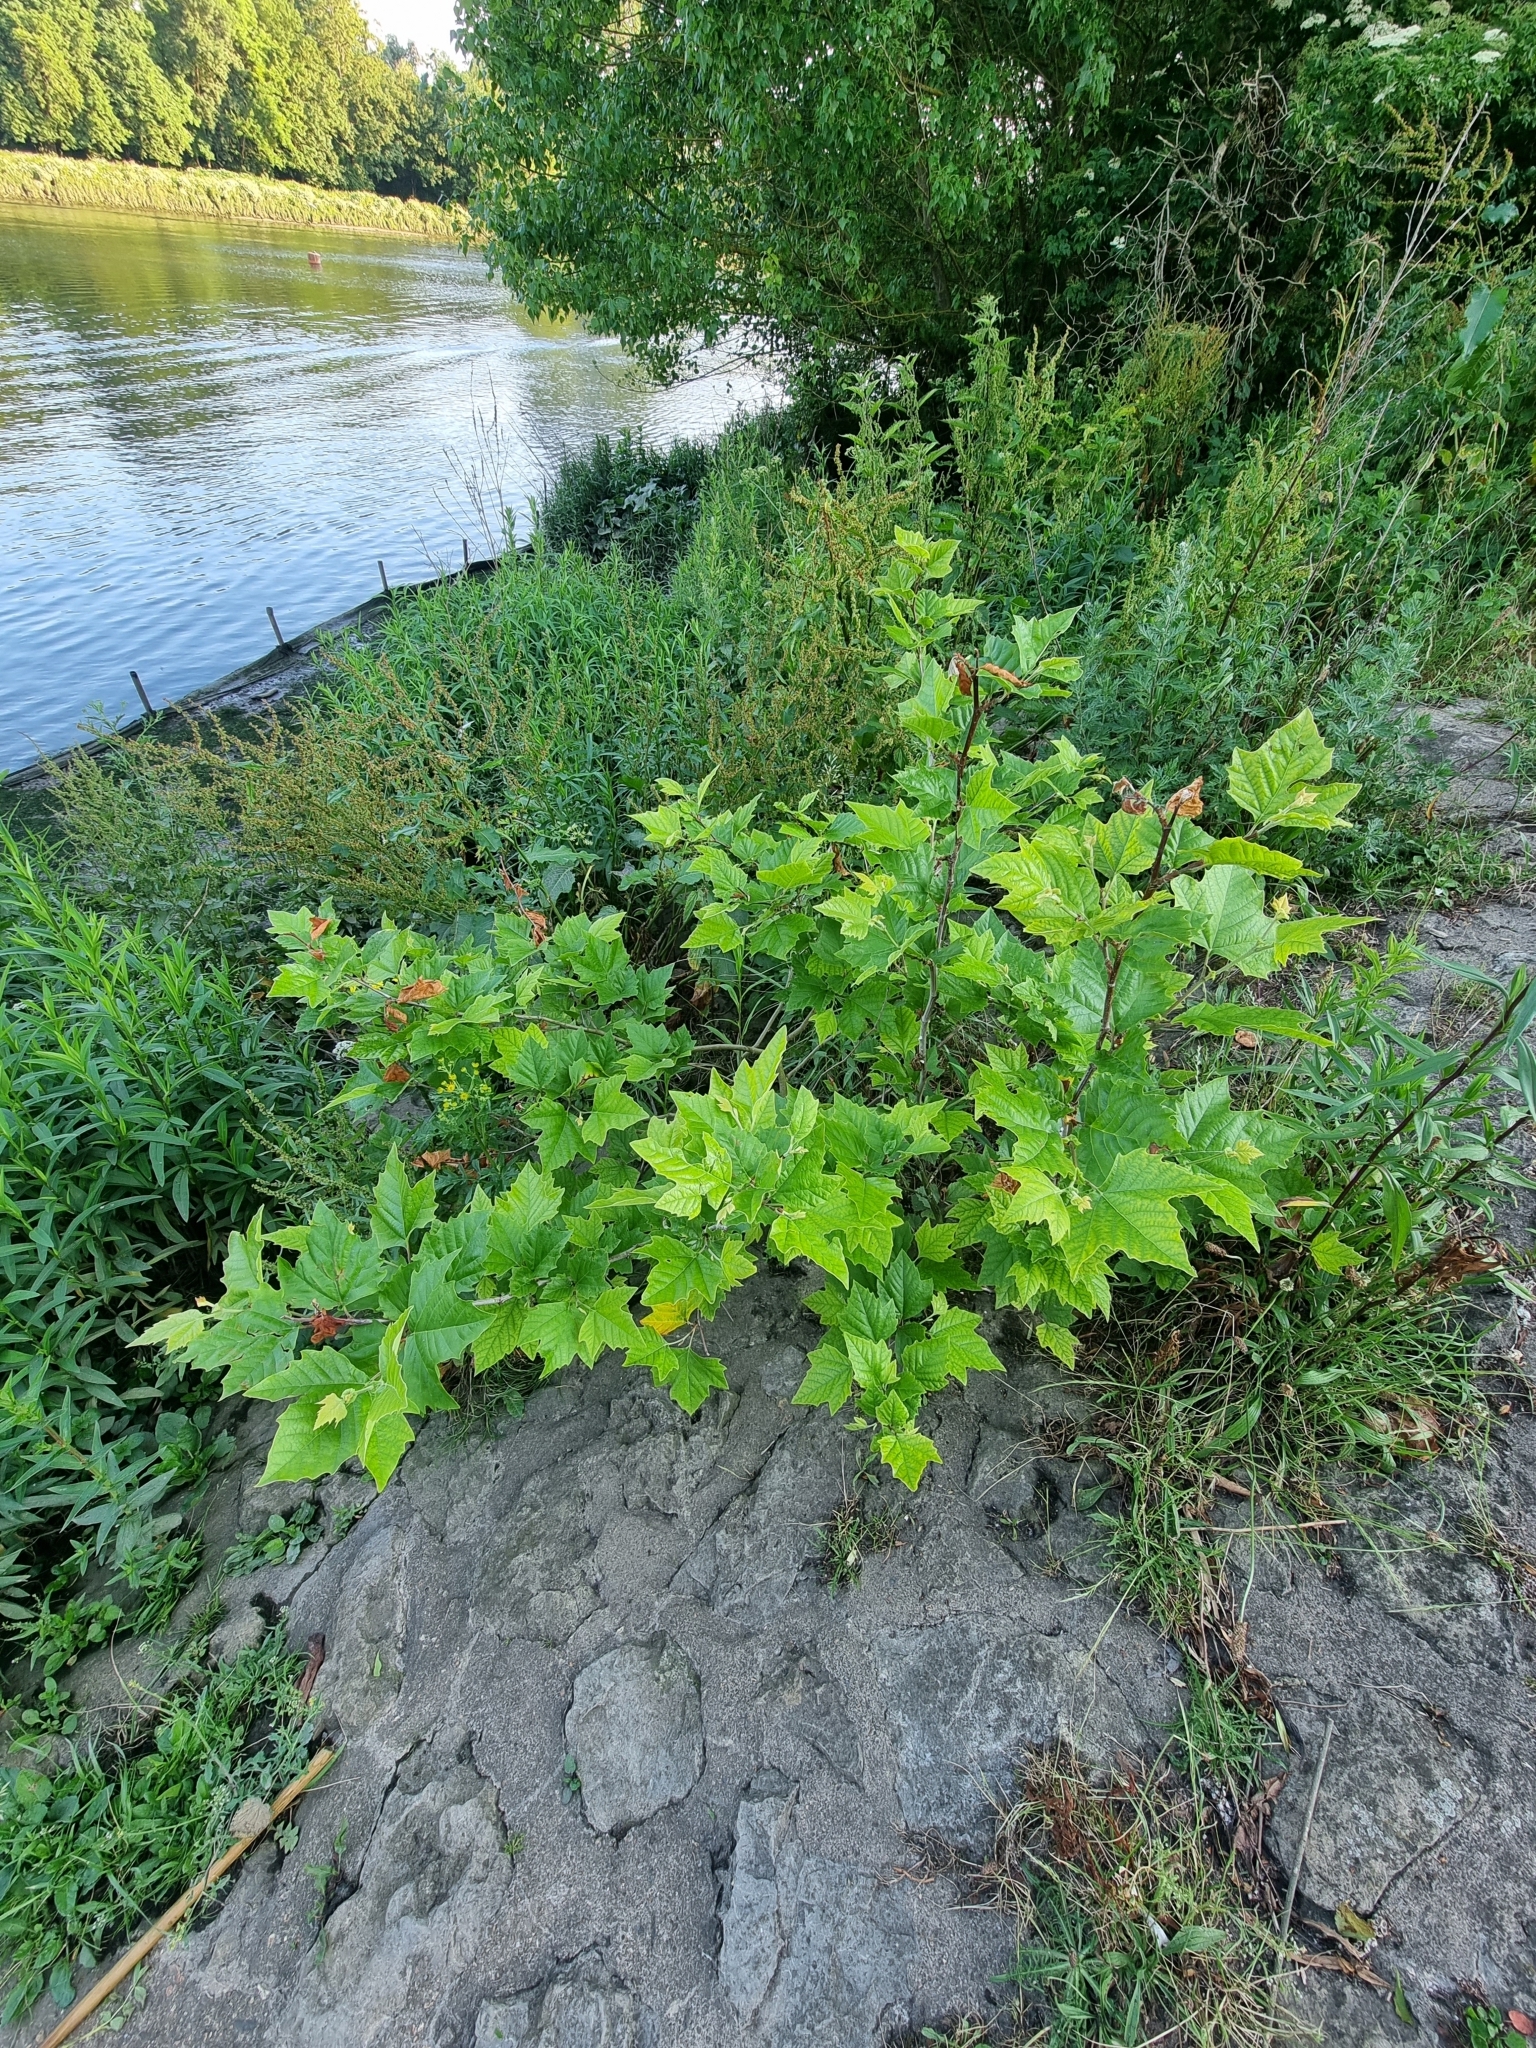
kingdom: Plantae
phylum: Tracheophyta
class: Magnoliopsida
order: Proteales
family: Platanaceae
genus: Platanus
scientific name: Platanus hispanica
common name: London plane
